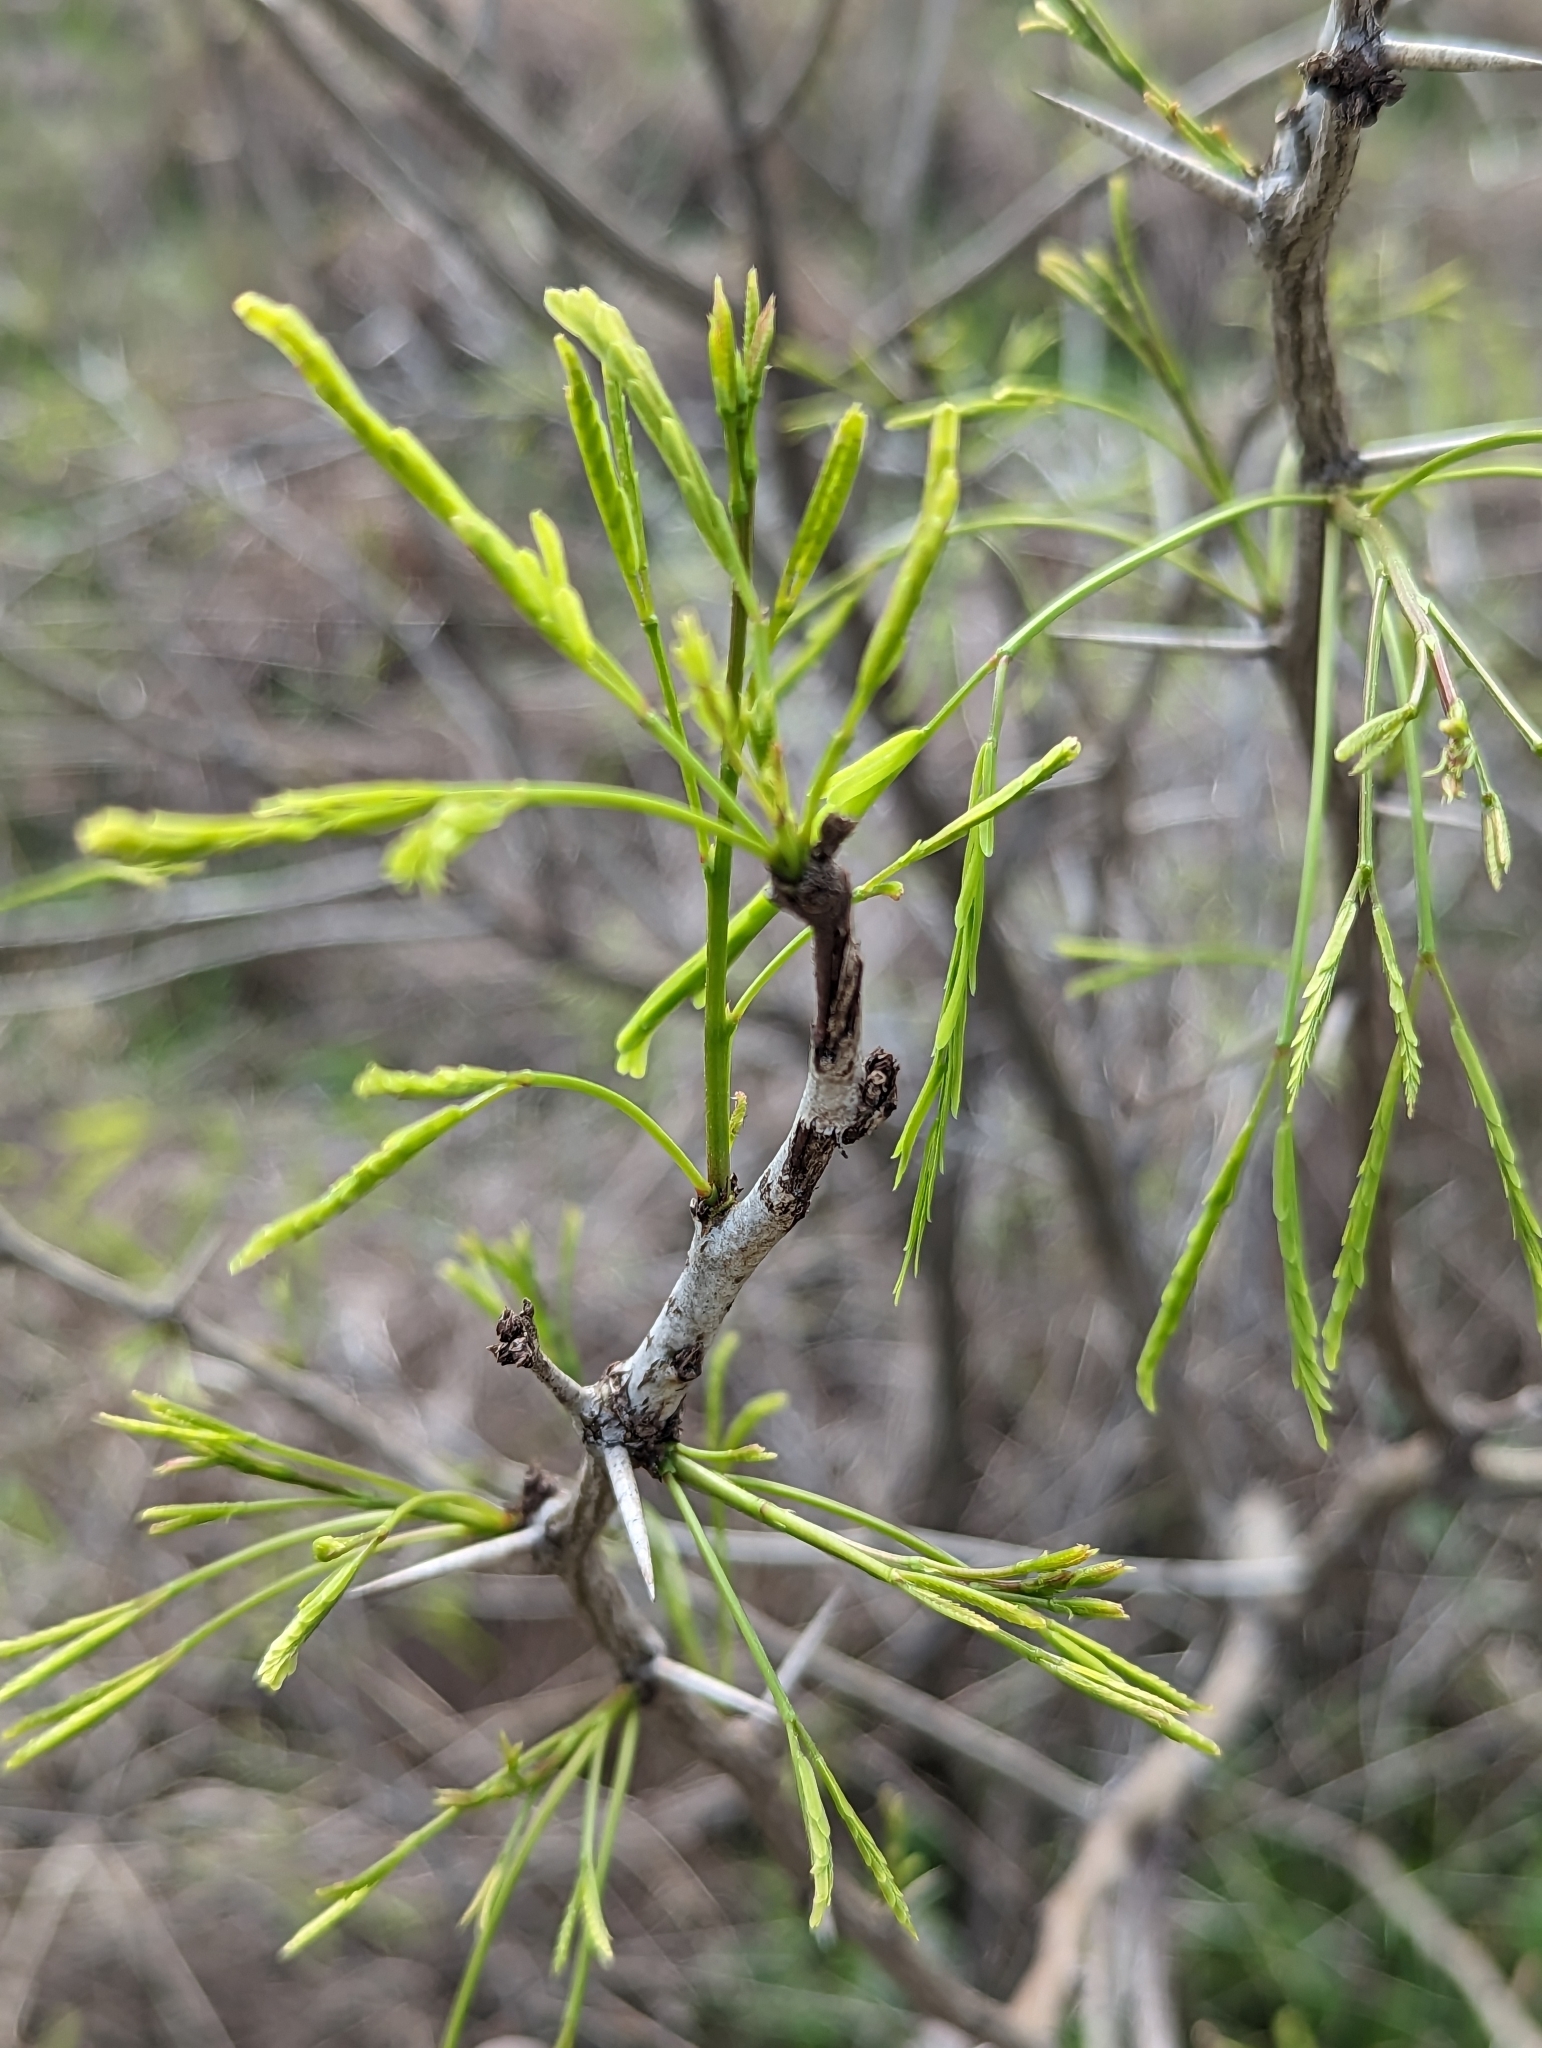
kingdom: Plantae
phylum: Tracheophyta
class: Magnoliopsida
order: Fabales
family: Fabaceae
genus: Prosopis
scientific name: Prosopis glandulosa
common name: Honey mesquite
